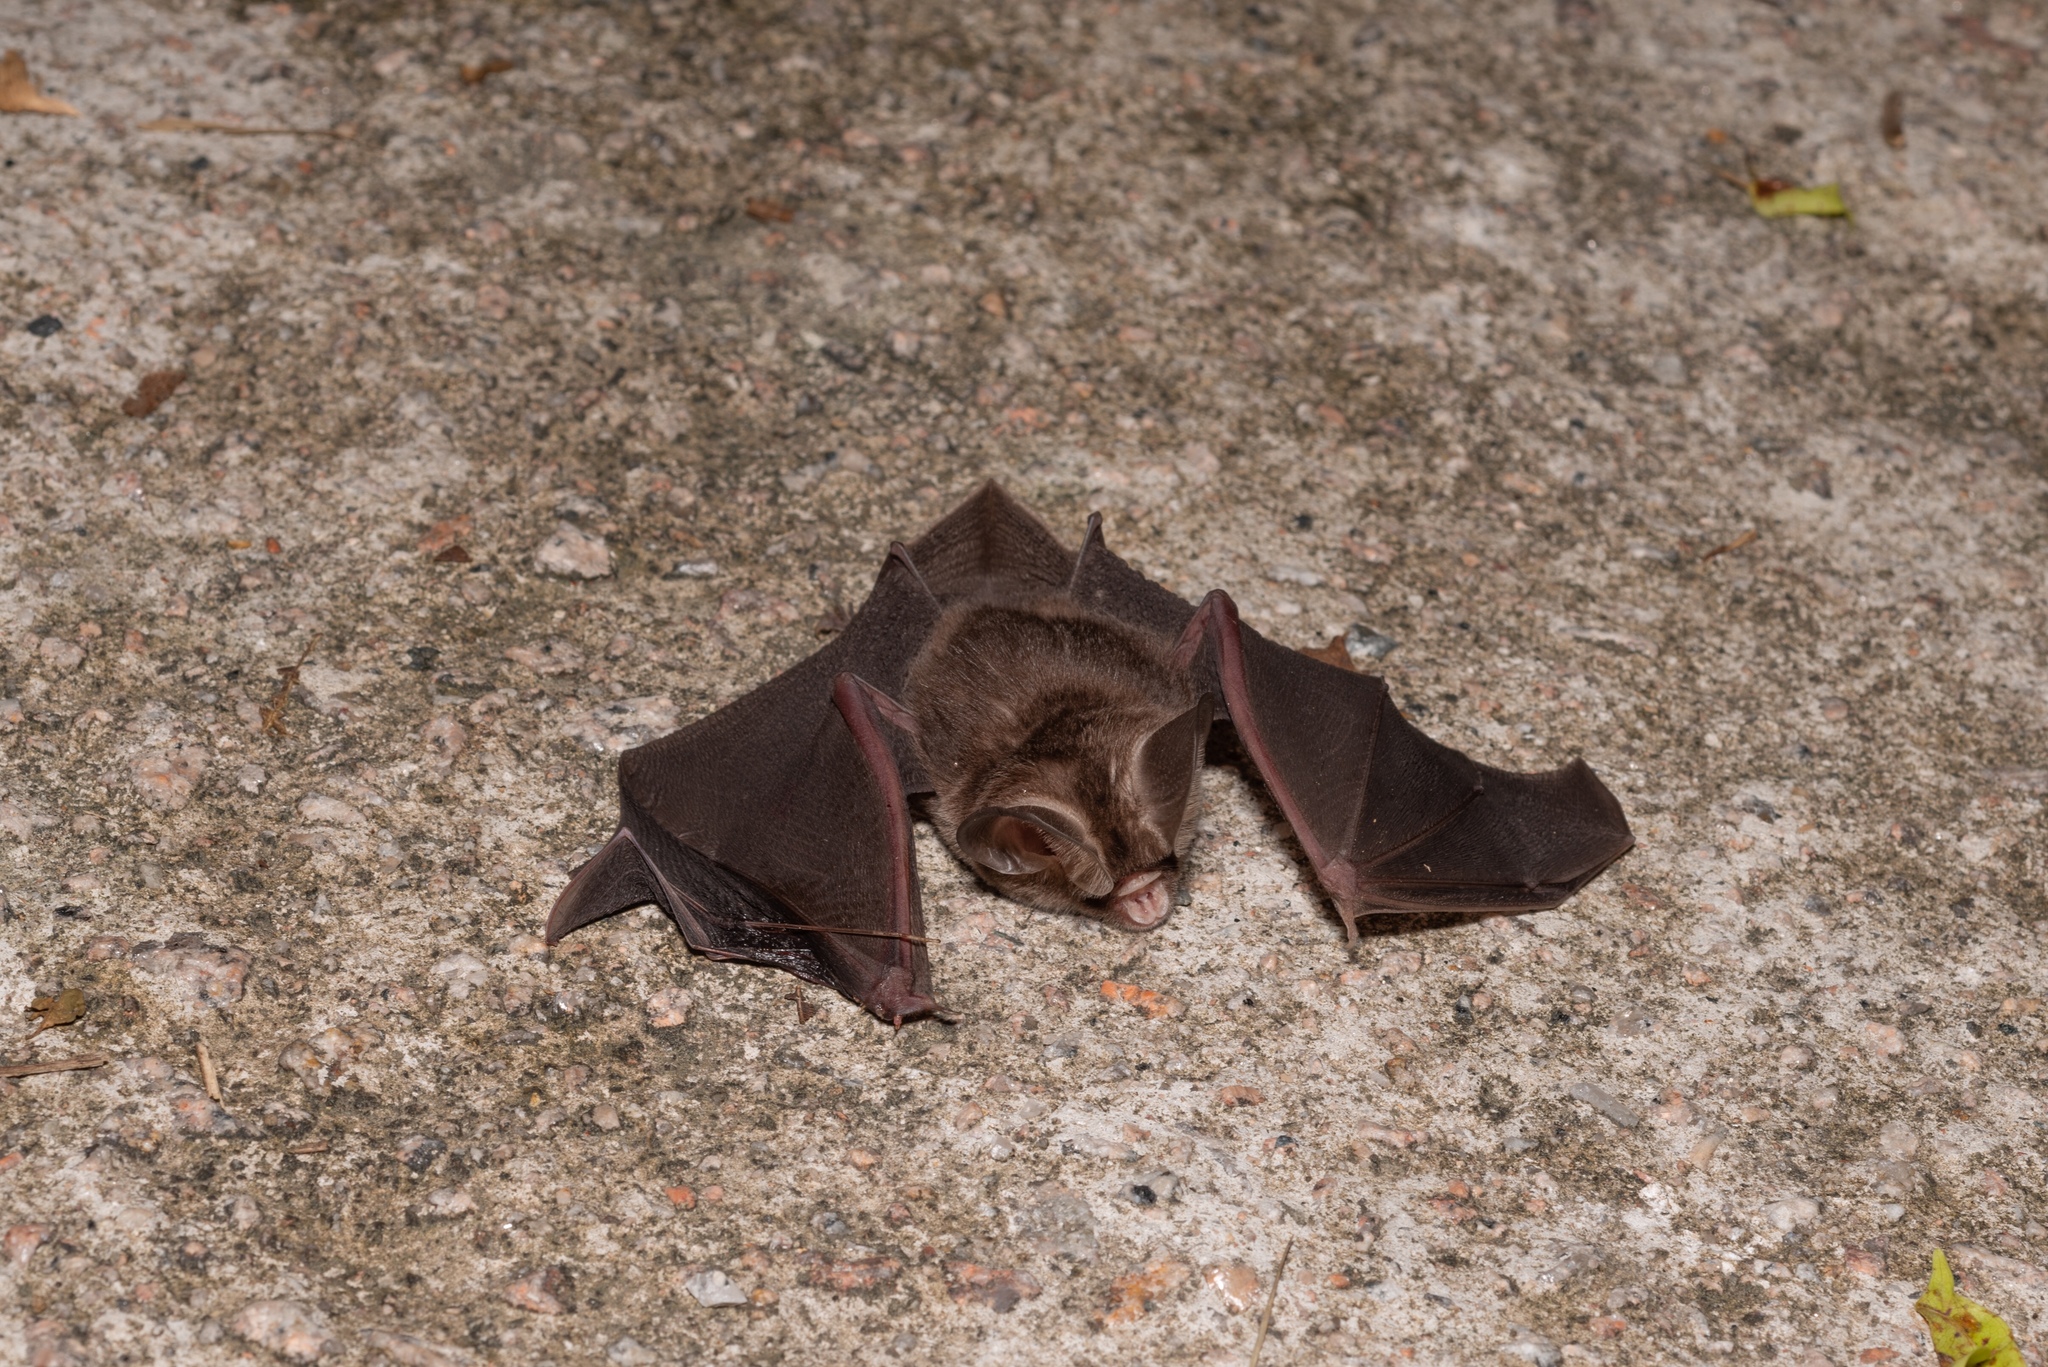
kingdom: Animalia
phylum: Chordata
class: Mammalia
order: Chiroptera
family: Hipposideridae
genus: Hipposideros
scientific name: Hipposideros gentilis
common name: Andersen's leaf-nosed bat
